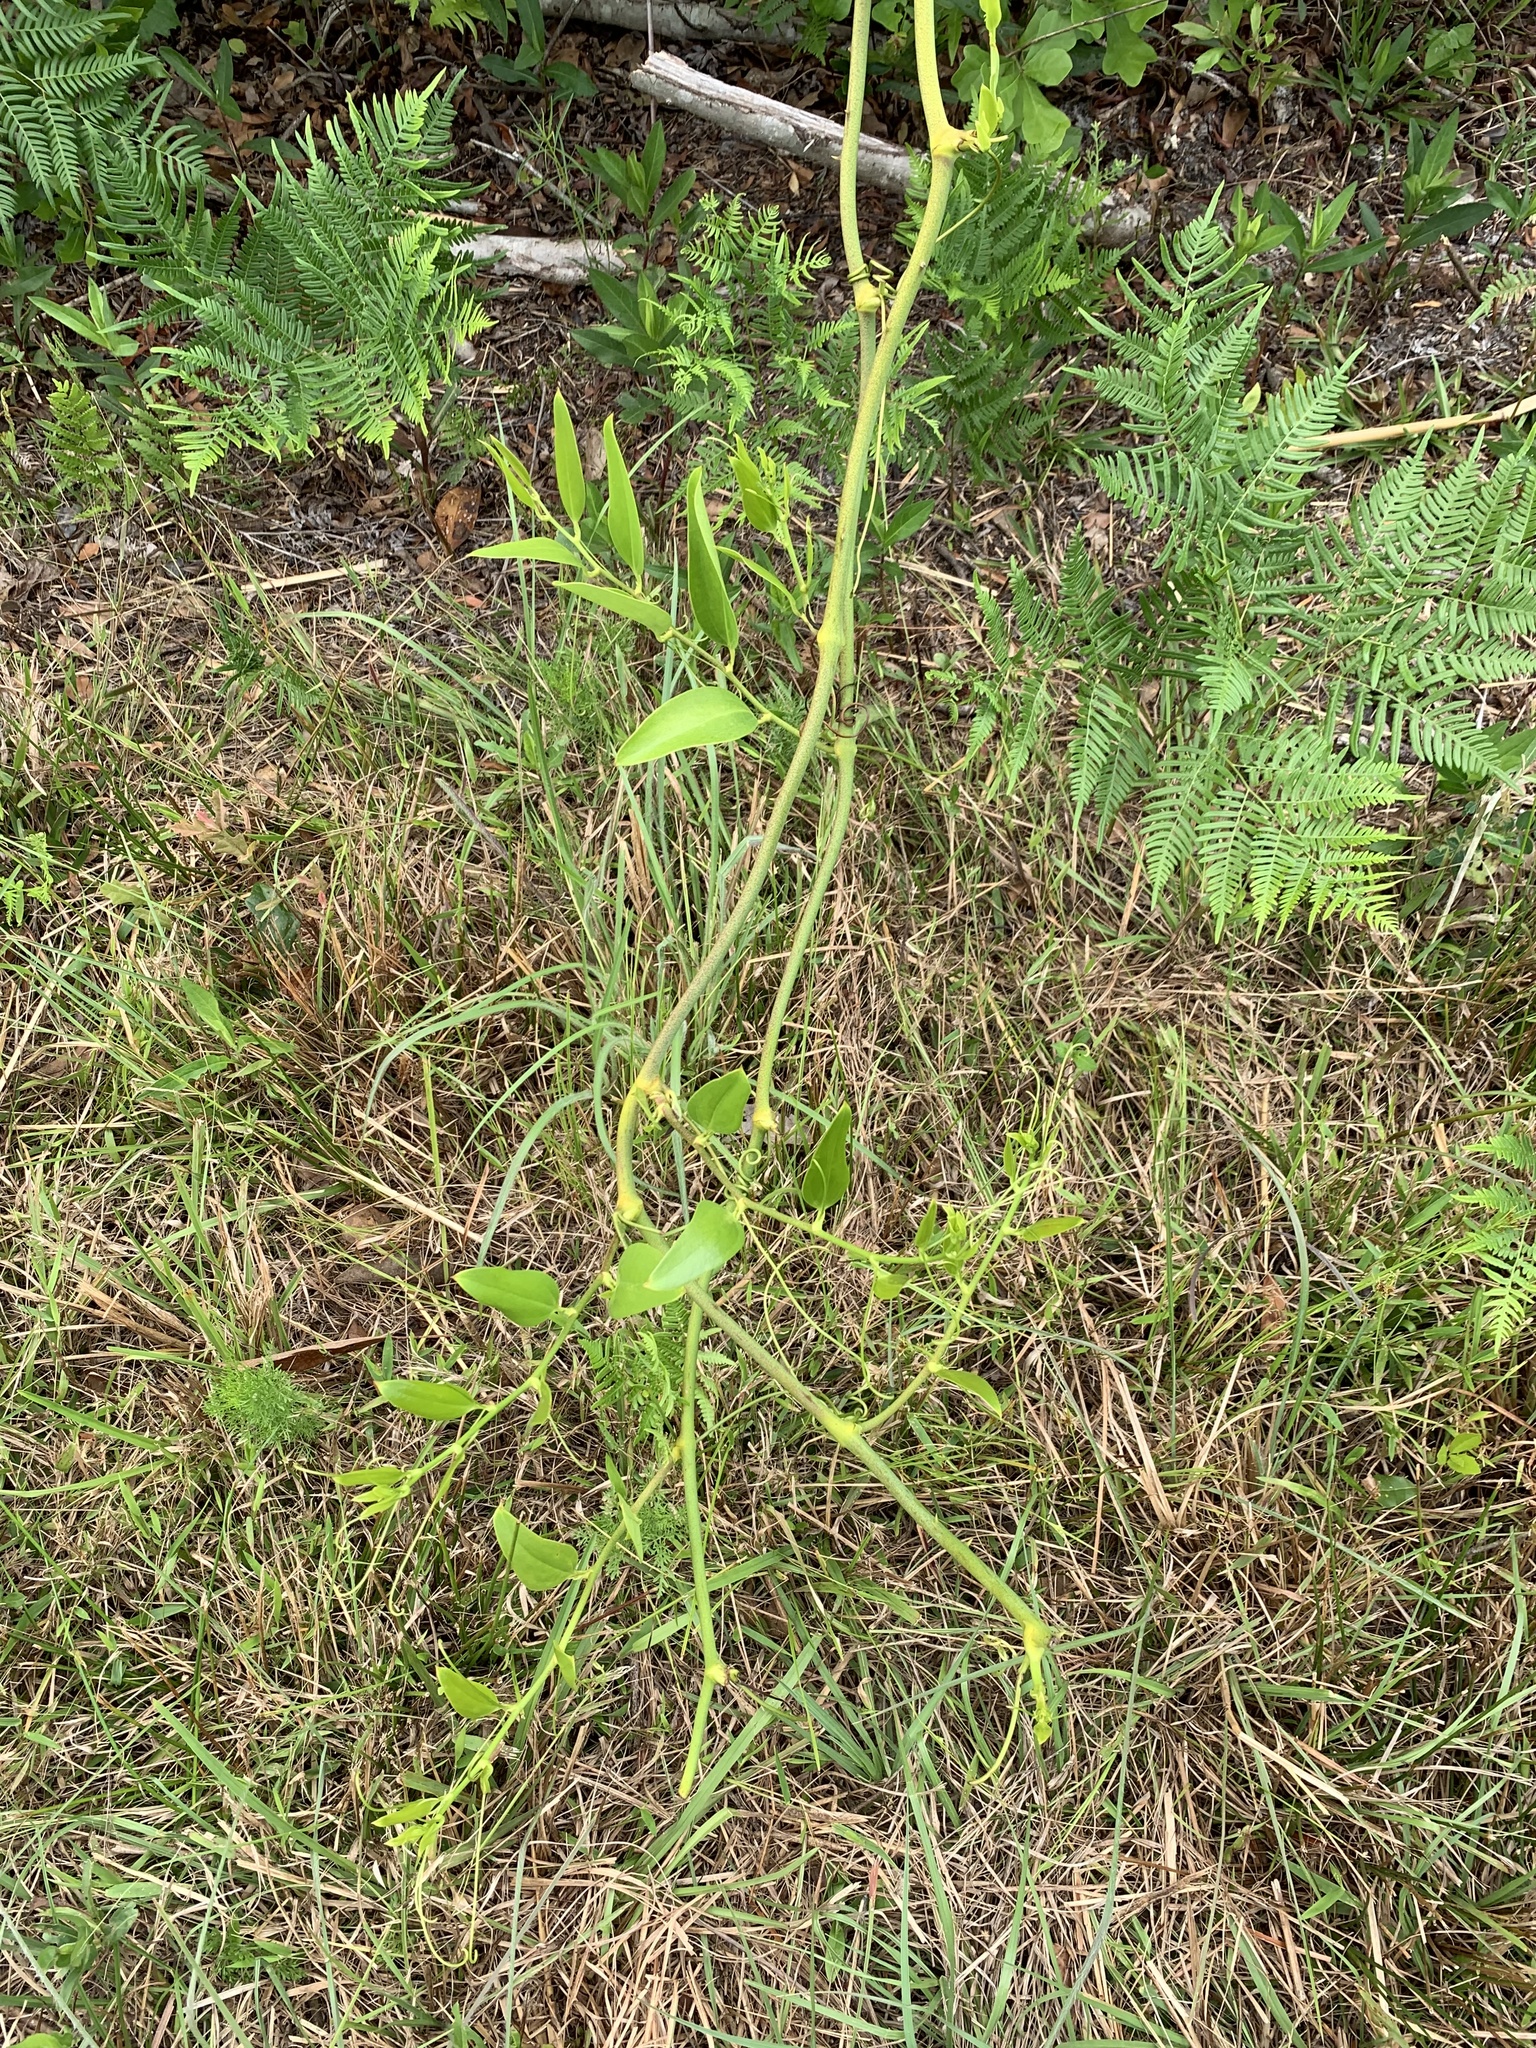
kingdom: Plantae
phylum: Tracheophyta
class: Liliopsida
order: Liliales
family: Smilacaceae
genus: Smilax
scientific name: Smilax laurifolia
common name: Bamboovine
